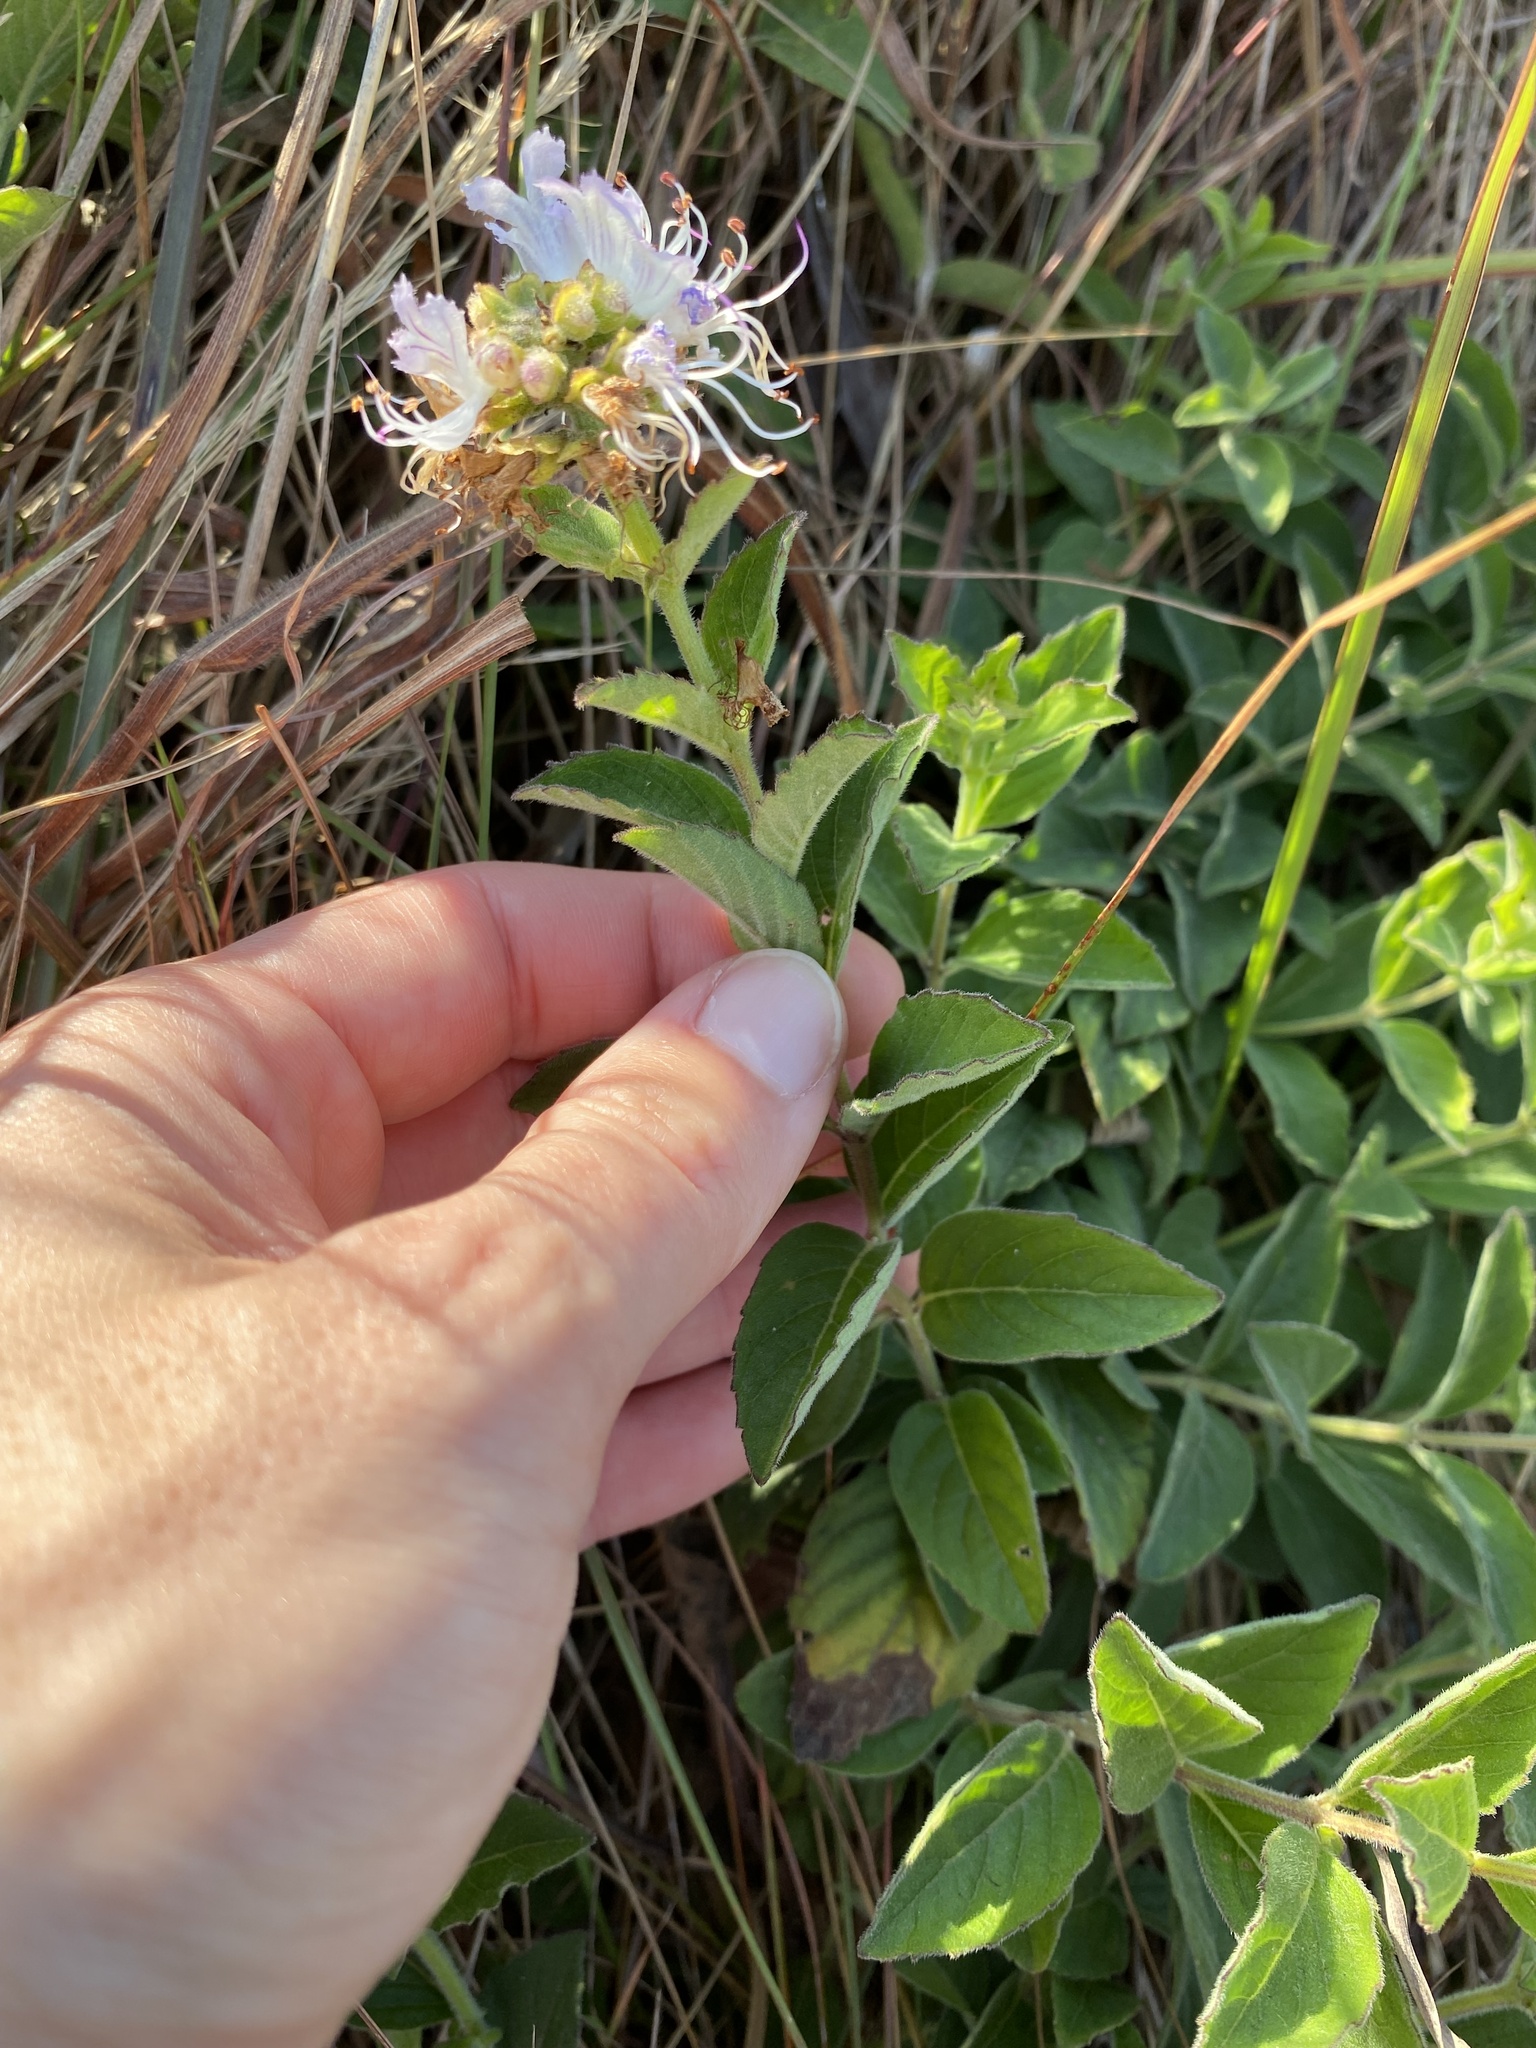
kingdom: Plantae
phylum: Tracheophyta
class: Magnoliopsida
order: Lamiales
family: Lamiaceae
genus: Ocimum
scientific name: Ocimum obovatum
